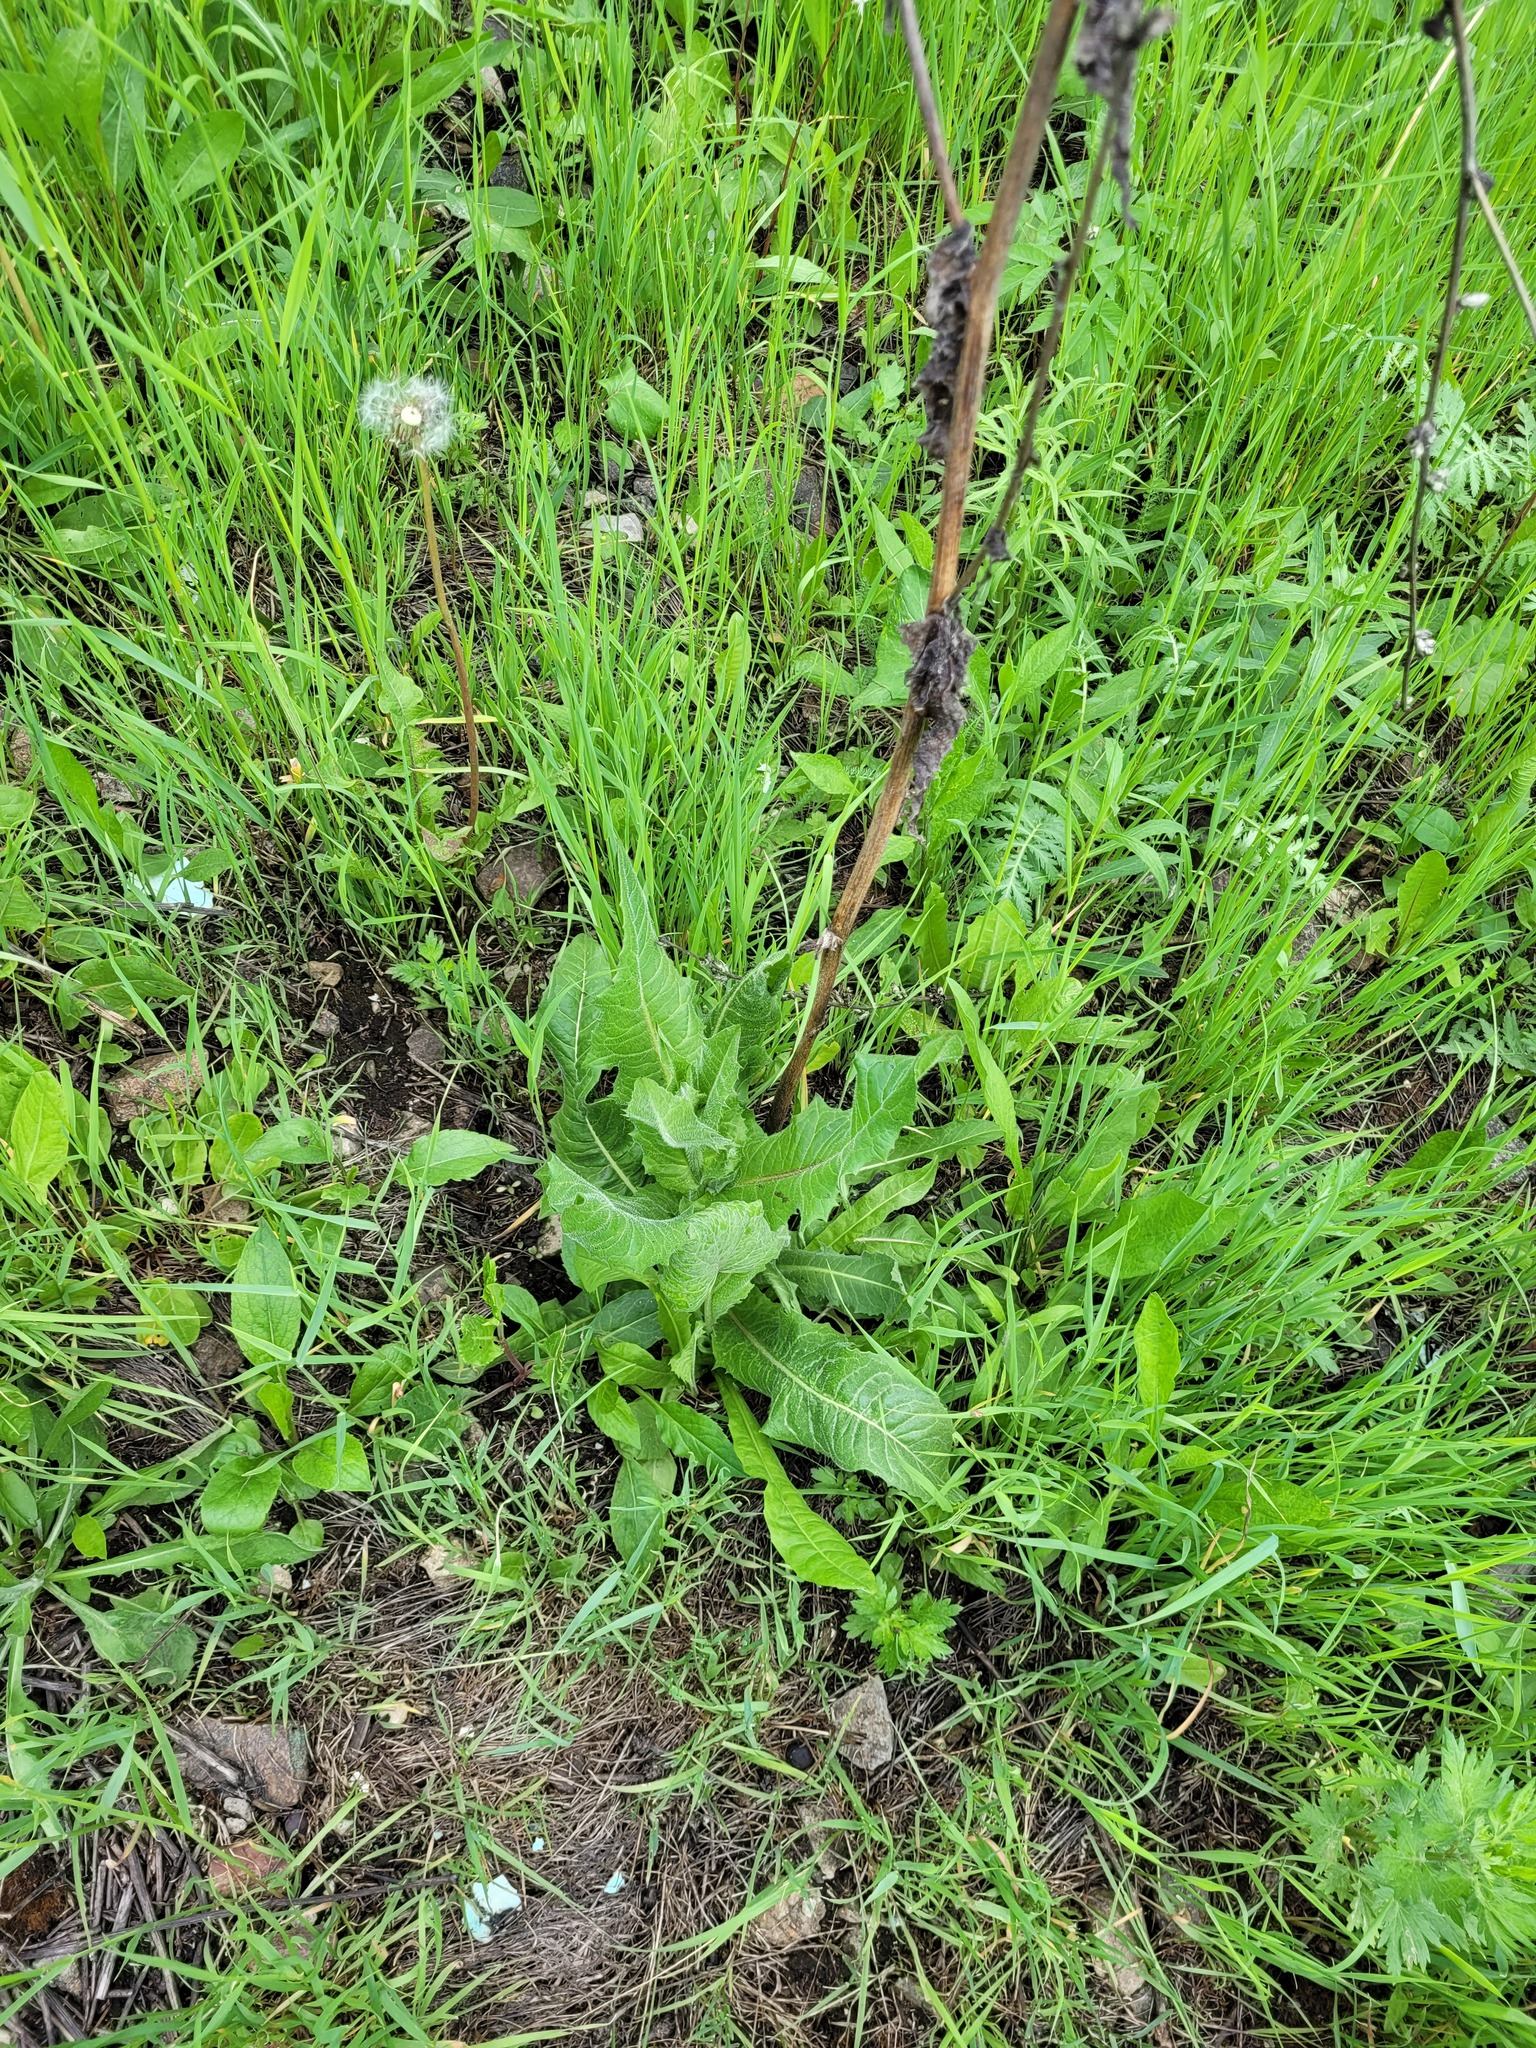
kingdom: Plantae
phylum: Tracheophyta
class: Magnoliopsida
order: Asterales
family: Asteraceae
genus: Cichorium
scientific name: Cichorium intybus
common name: Chicory
